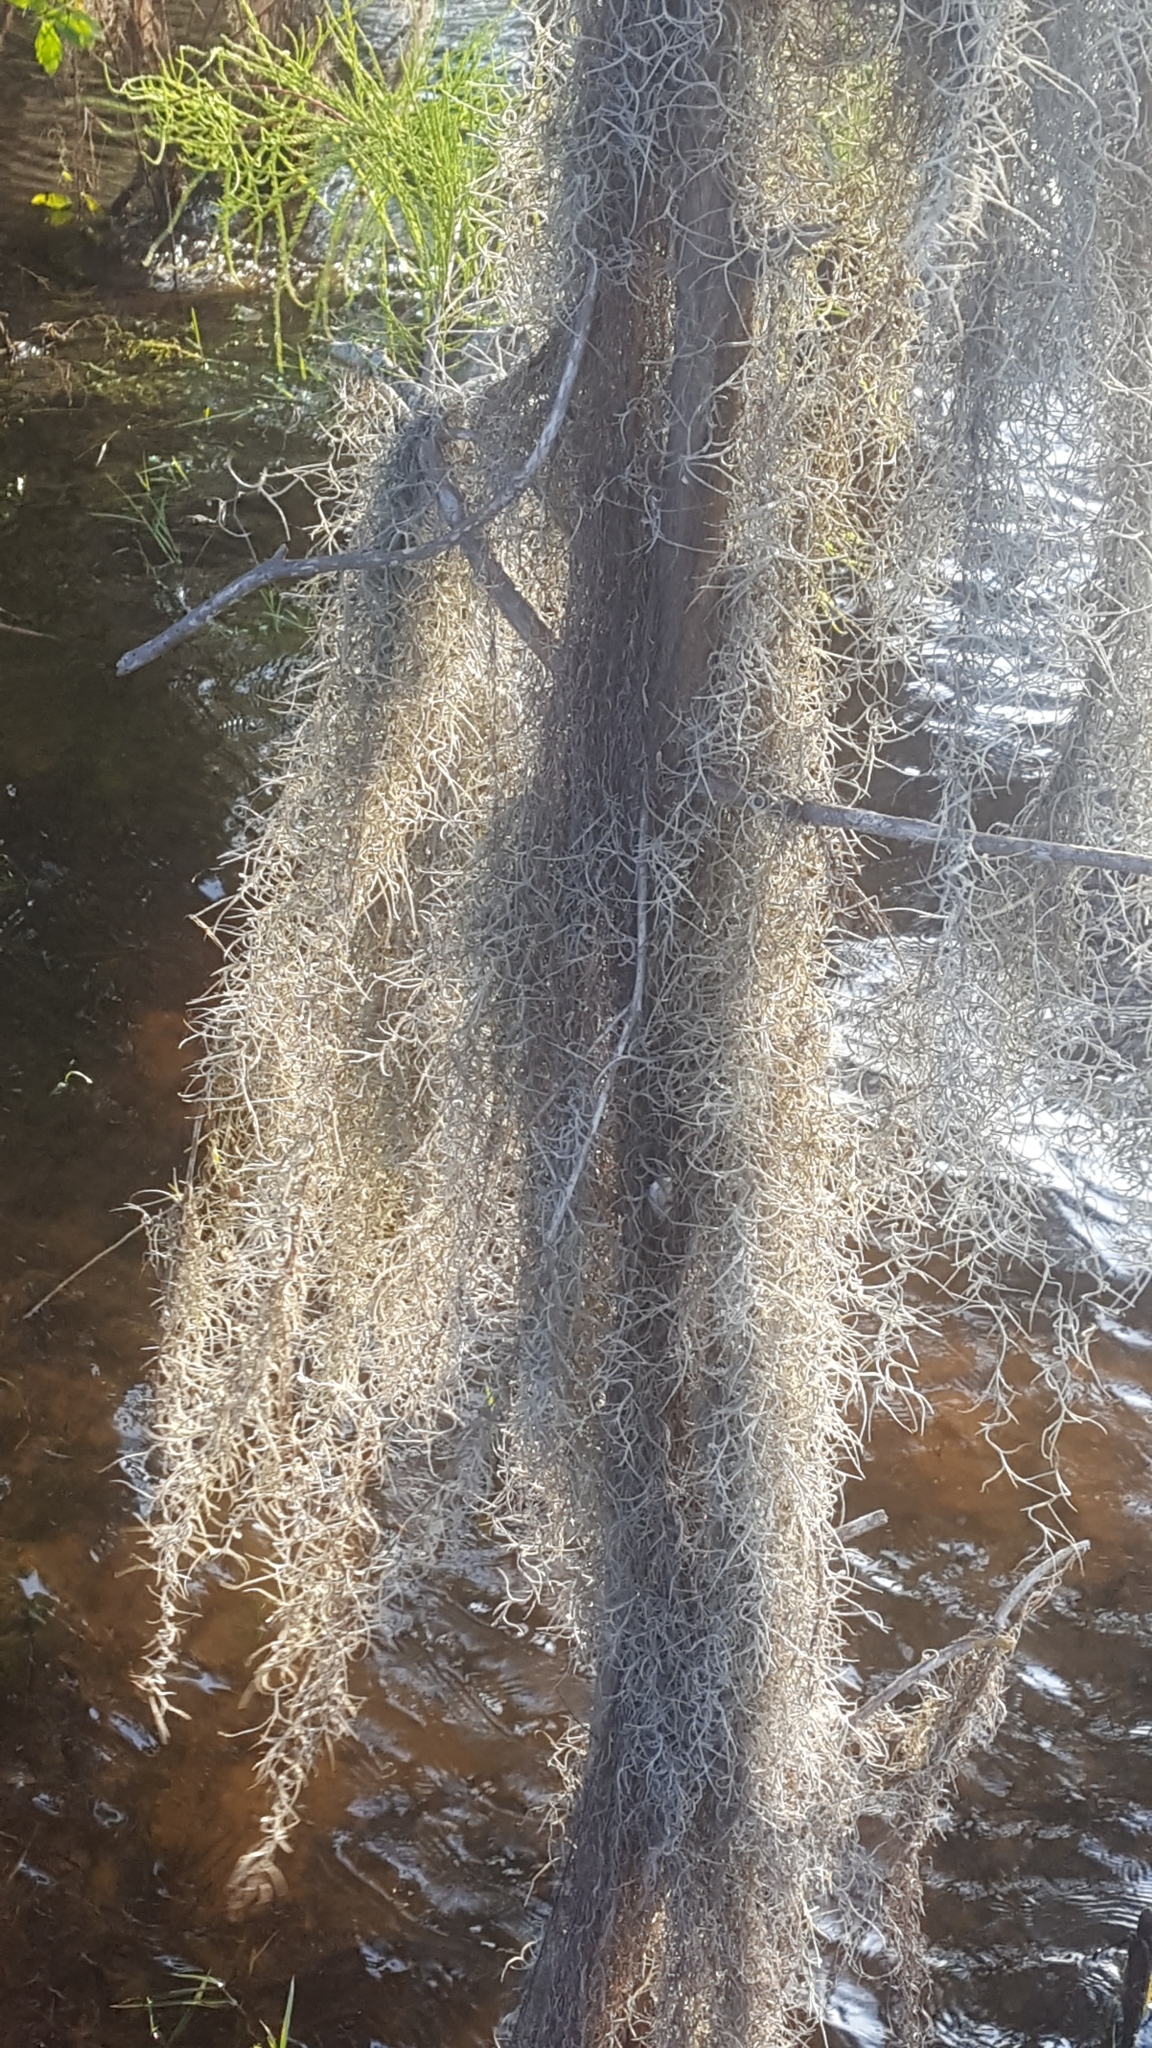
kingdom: Plantae
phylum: Tracheophyta
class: Liliopsida
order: Poales
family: Bromeliaceae
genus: Tillandsia
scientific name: Tillandsia usneoides
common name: Spanish moss
